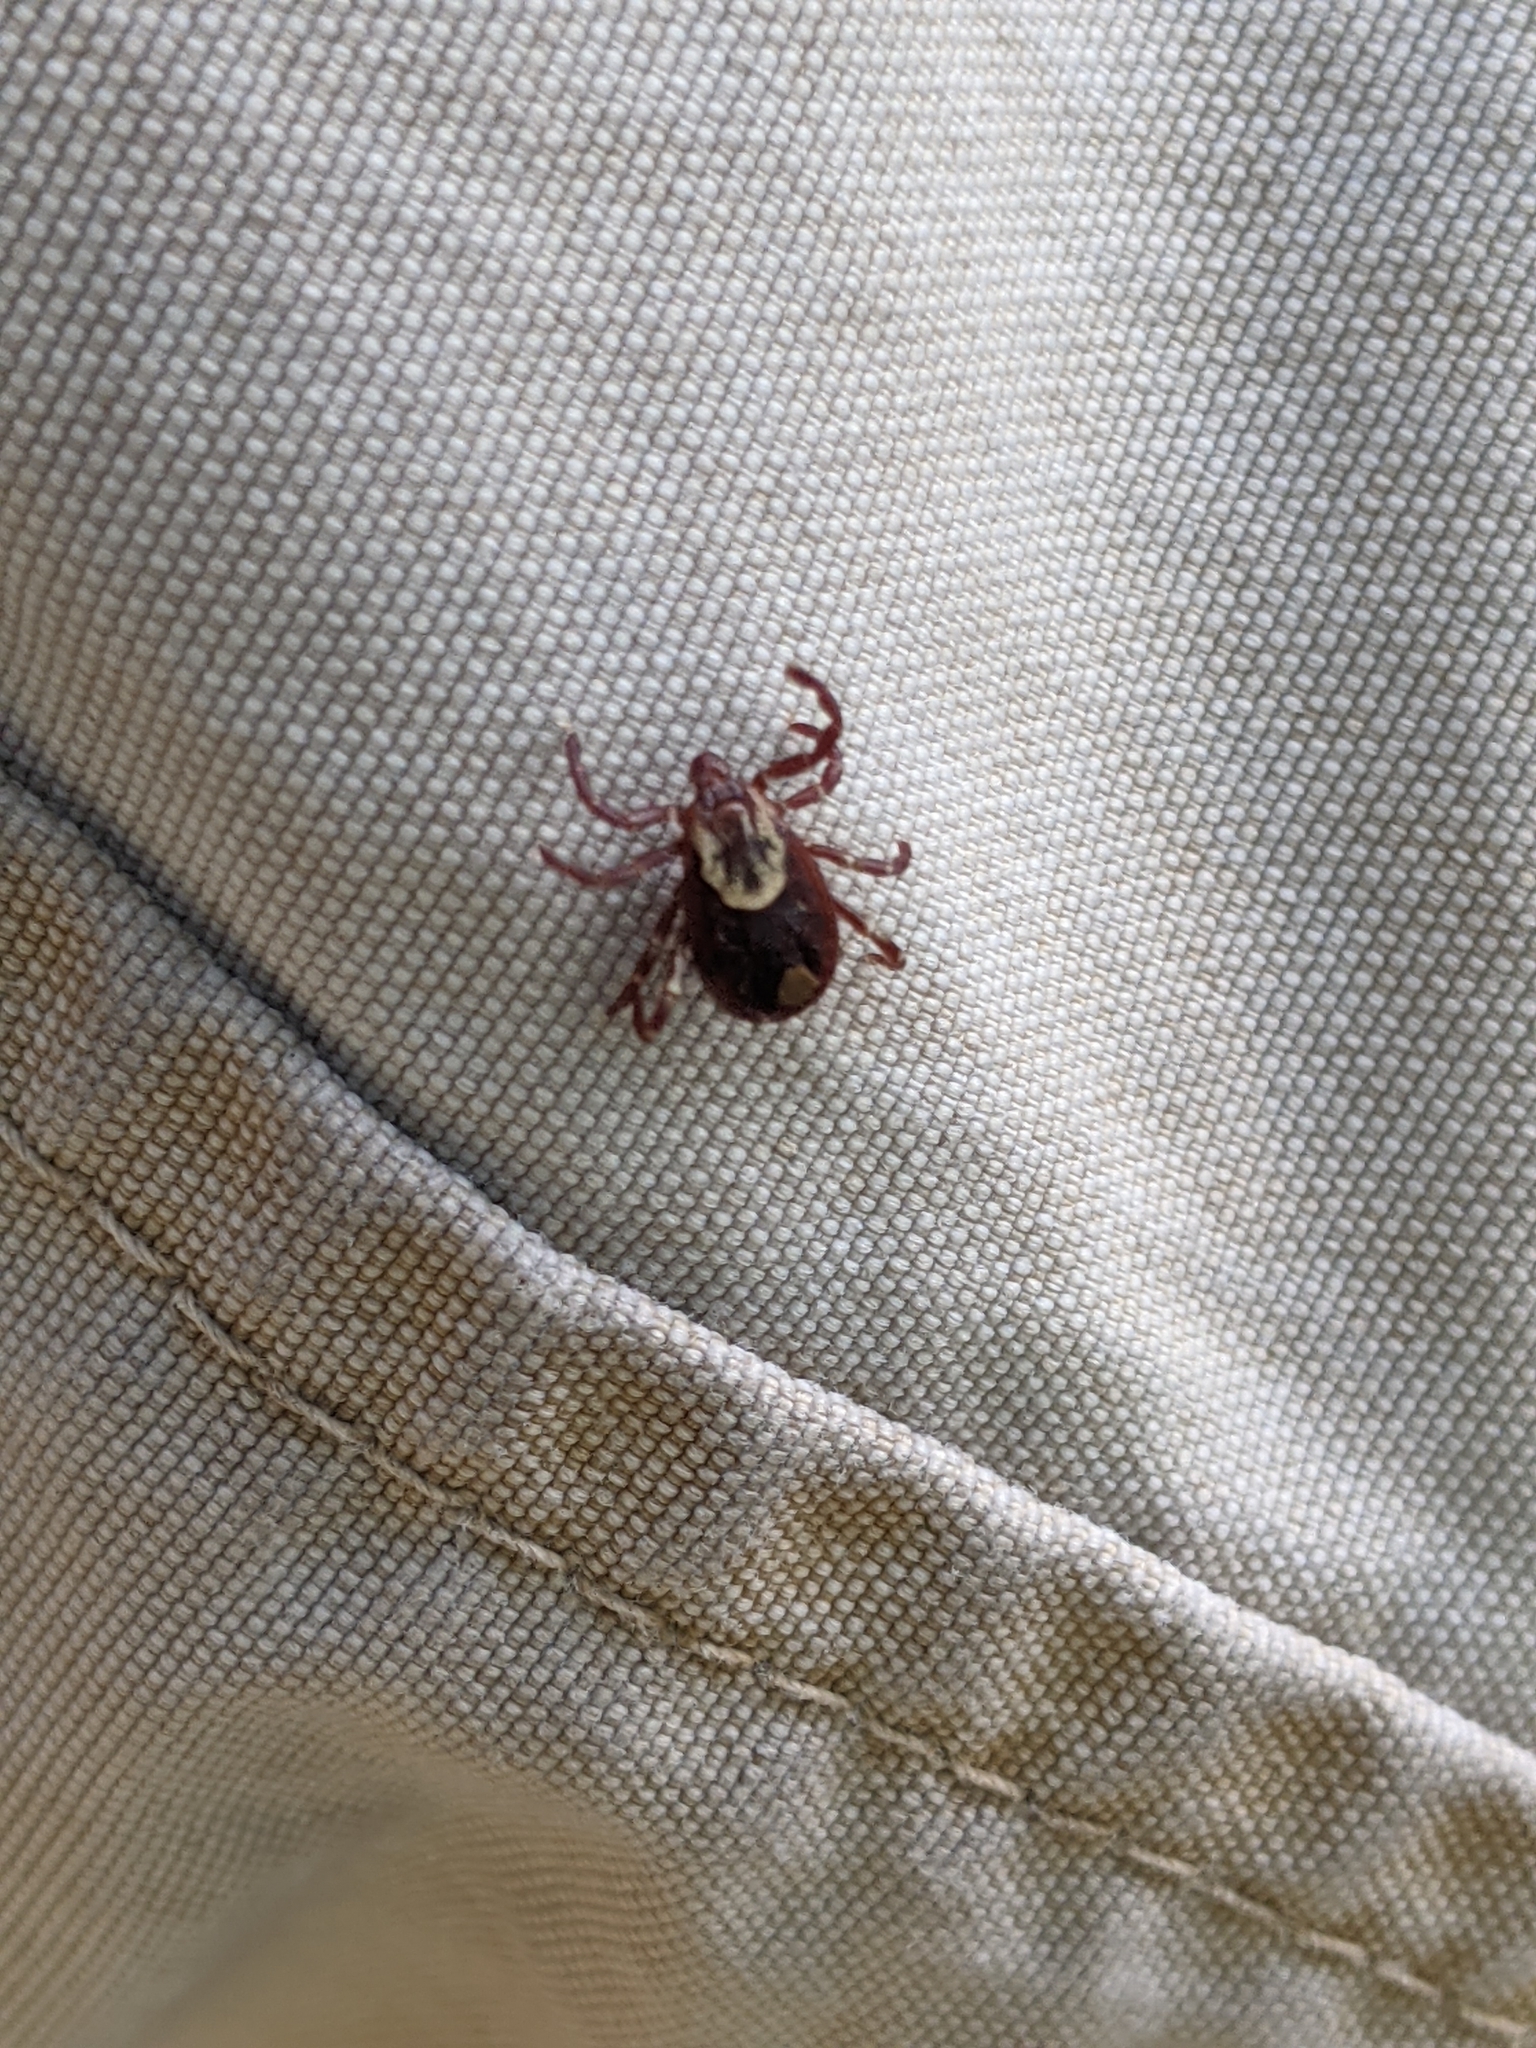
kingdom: Animalia
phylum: Arthropoda
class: Arachnida
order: Ixodida
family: Ixodidae
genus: Dermacentor
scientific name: Dermacentor variabilis
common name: American dog tick
